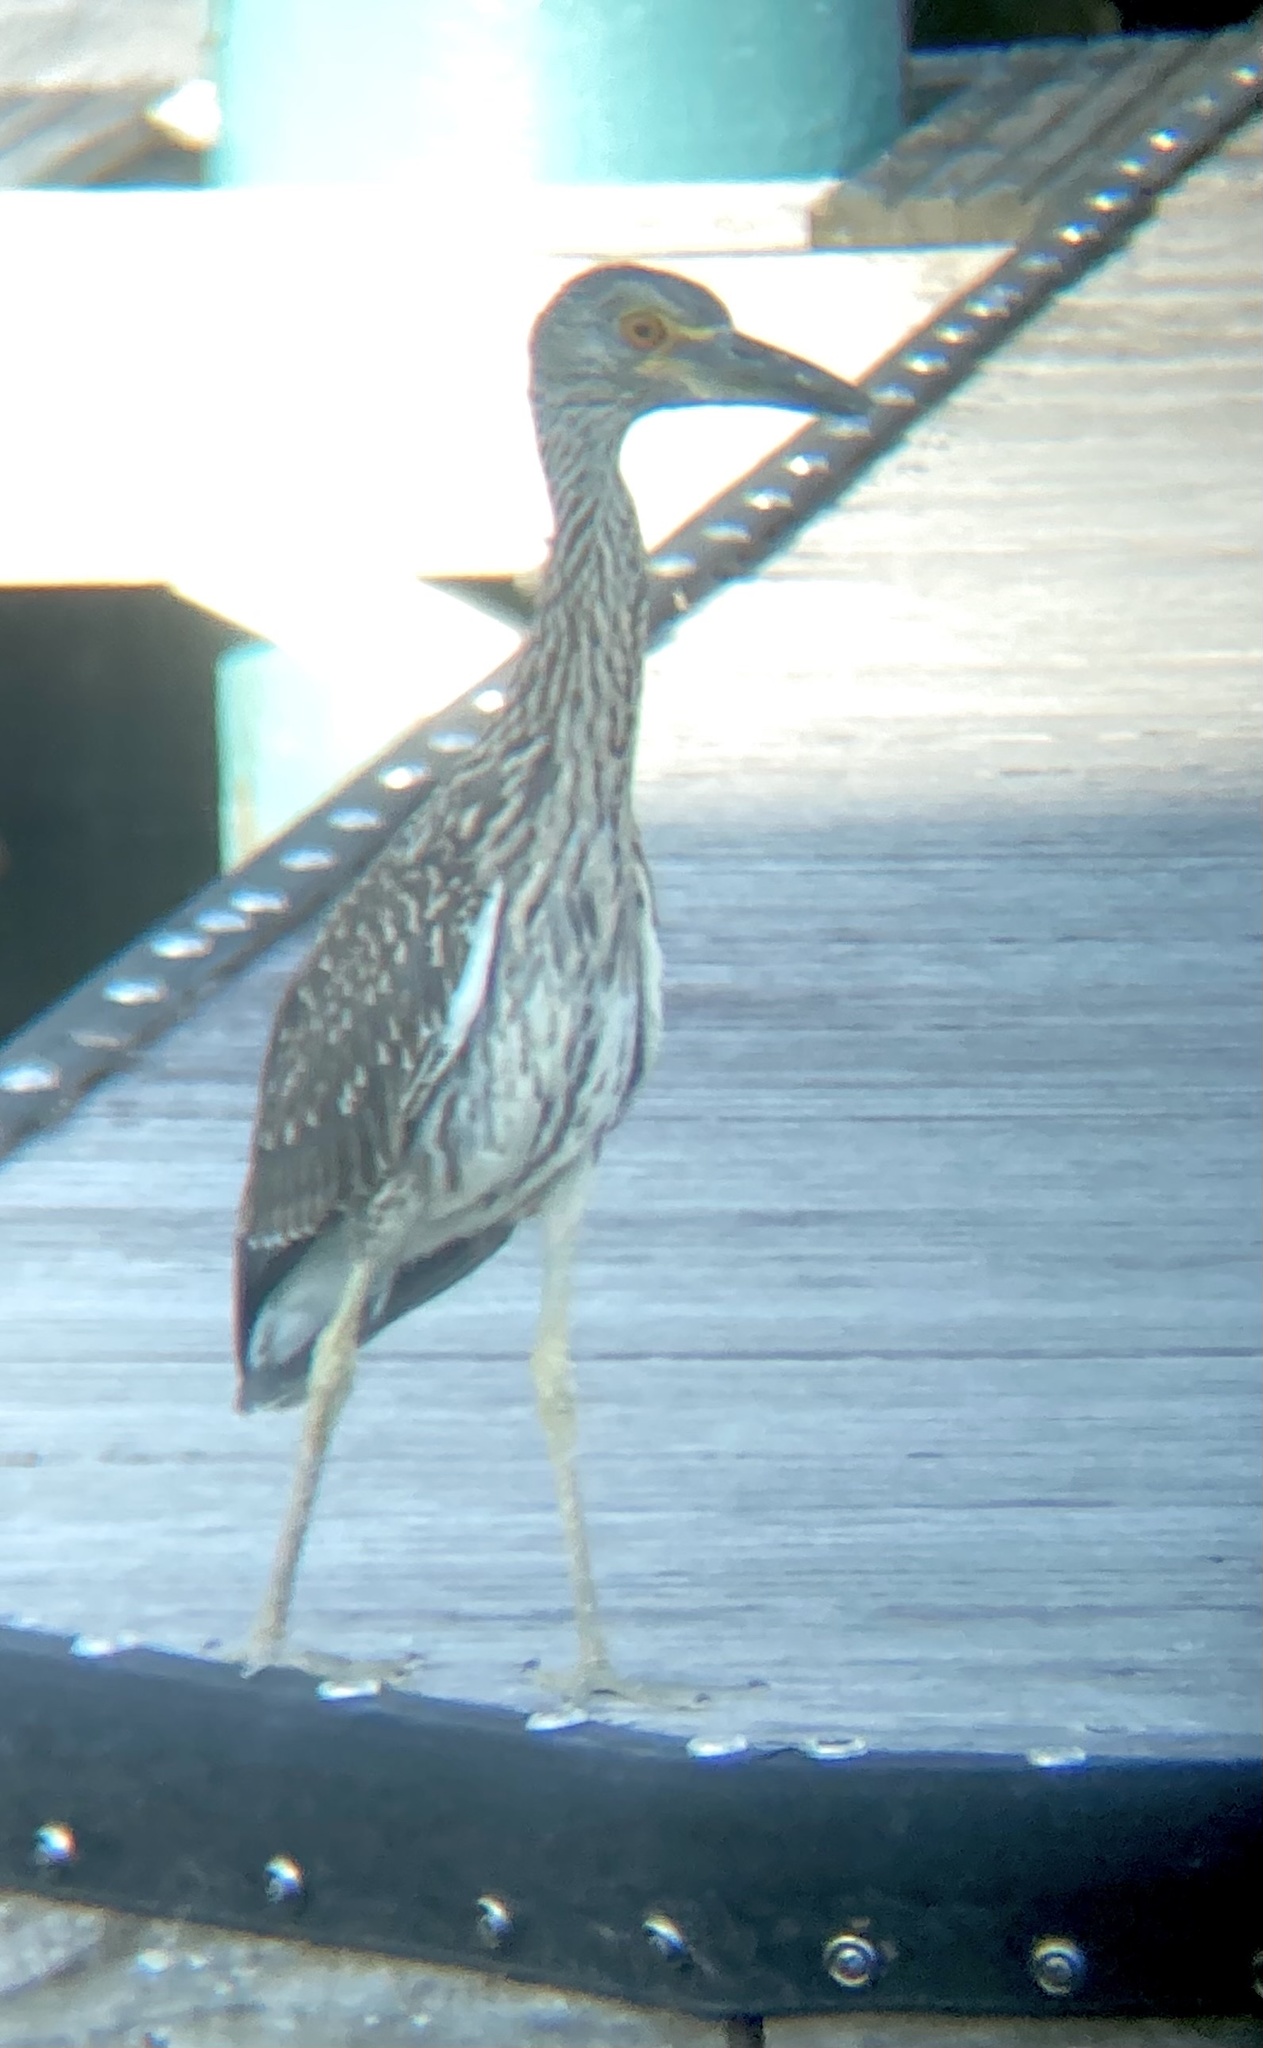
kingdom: Animalia
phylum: Chordata
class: Aves
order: Pelecaniformes
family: Ardeidae
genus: Nyctanassa
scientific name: Nyctanassa violacea
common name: Yellow-crowned night heron
